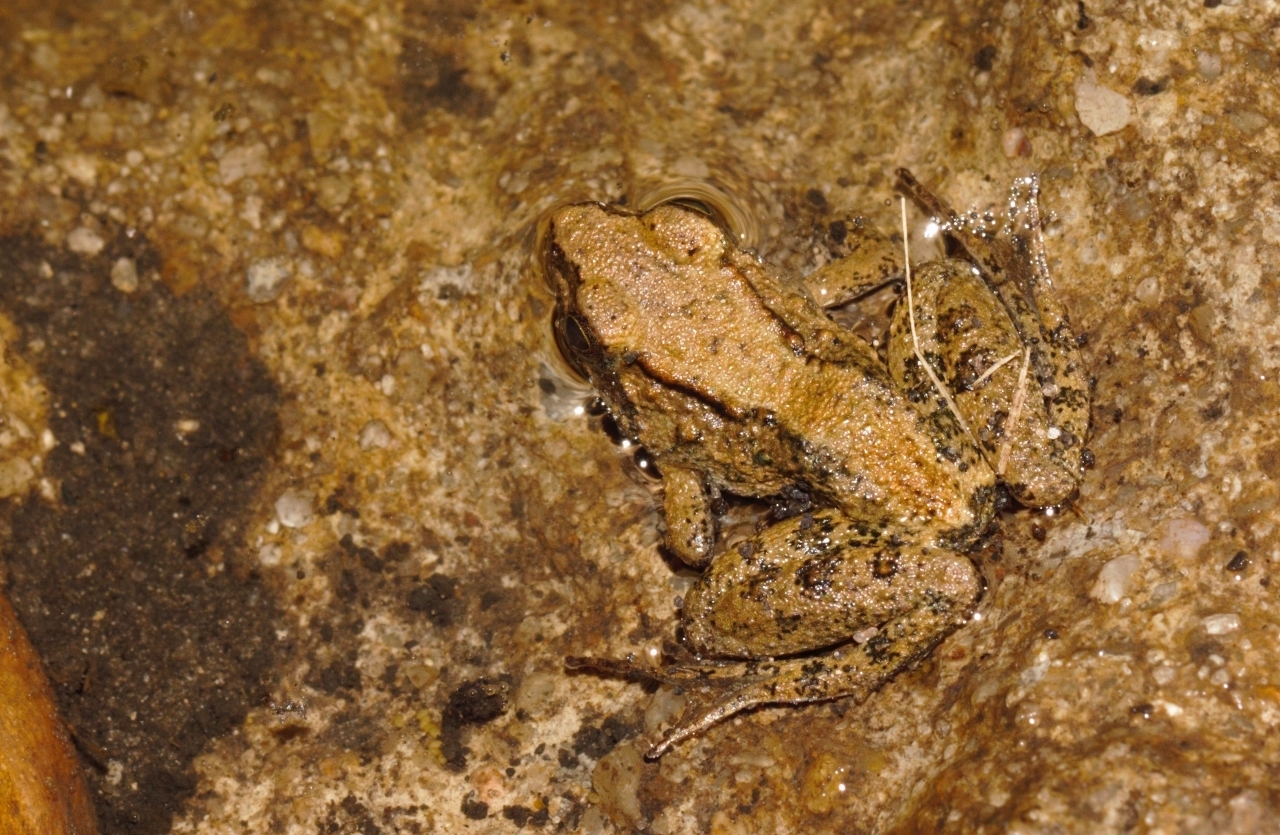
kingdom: Animalia
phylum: Chordata
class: Amphibia
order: Anura
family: Phrynobatrachidae
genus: Phrynobatrachus
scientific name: Phrynobatrachus acridoides
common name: East african puddle frog
